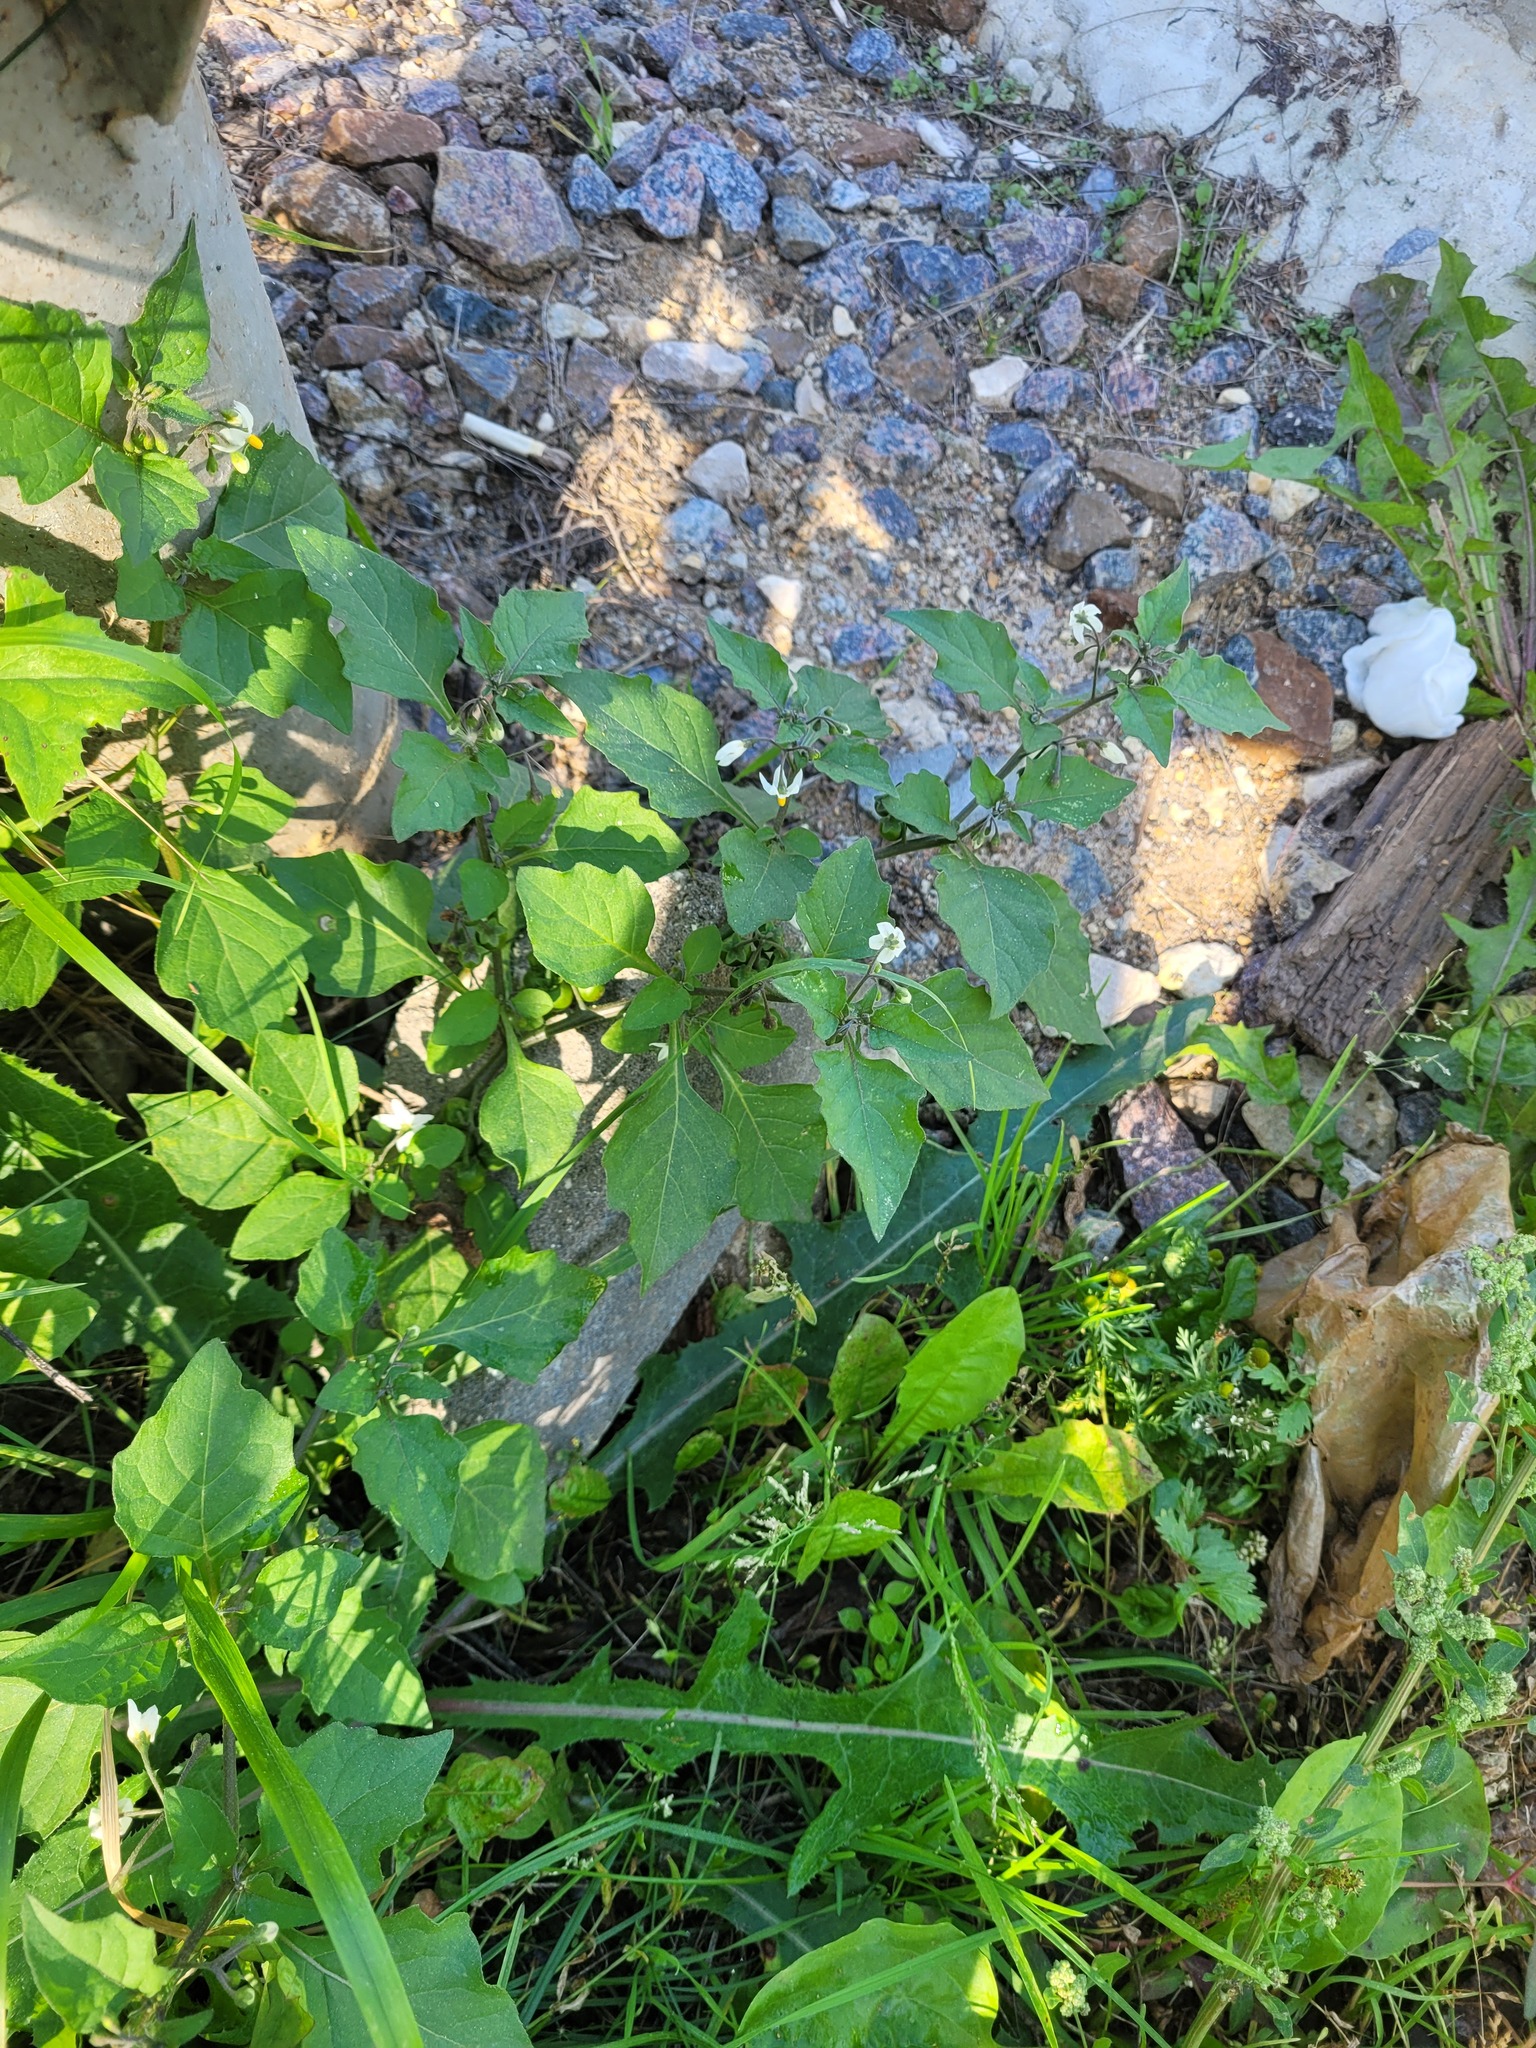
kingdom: Plantae
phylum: Tracheophyta
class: Magnoliopsida
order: Solanales
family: Solanaceae
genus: Solanum
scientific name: Solanum nigrum
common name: Black nightshade
